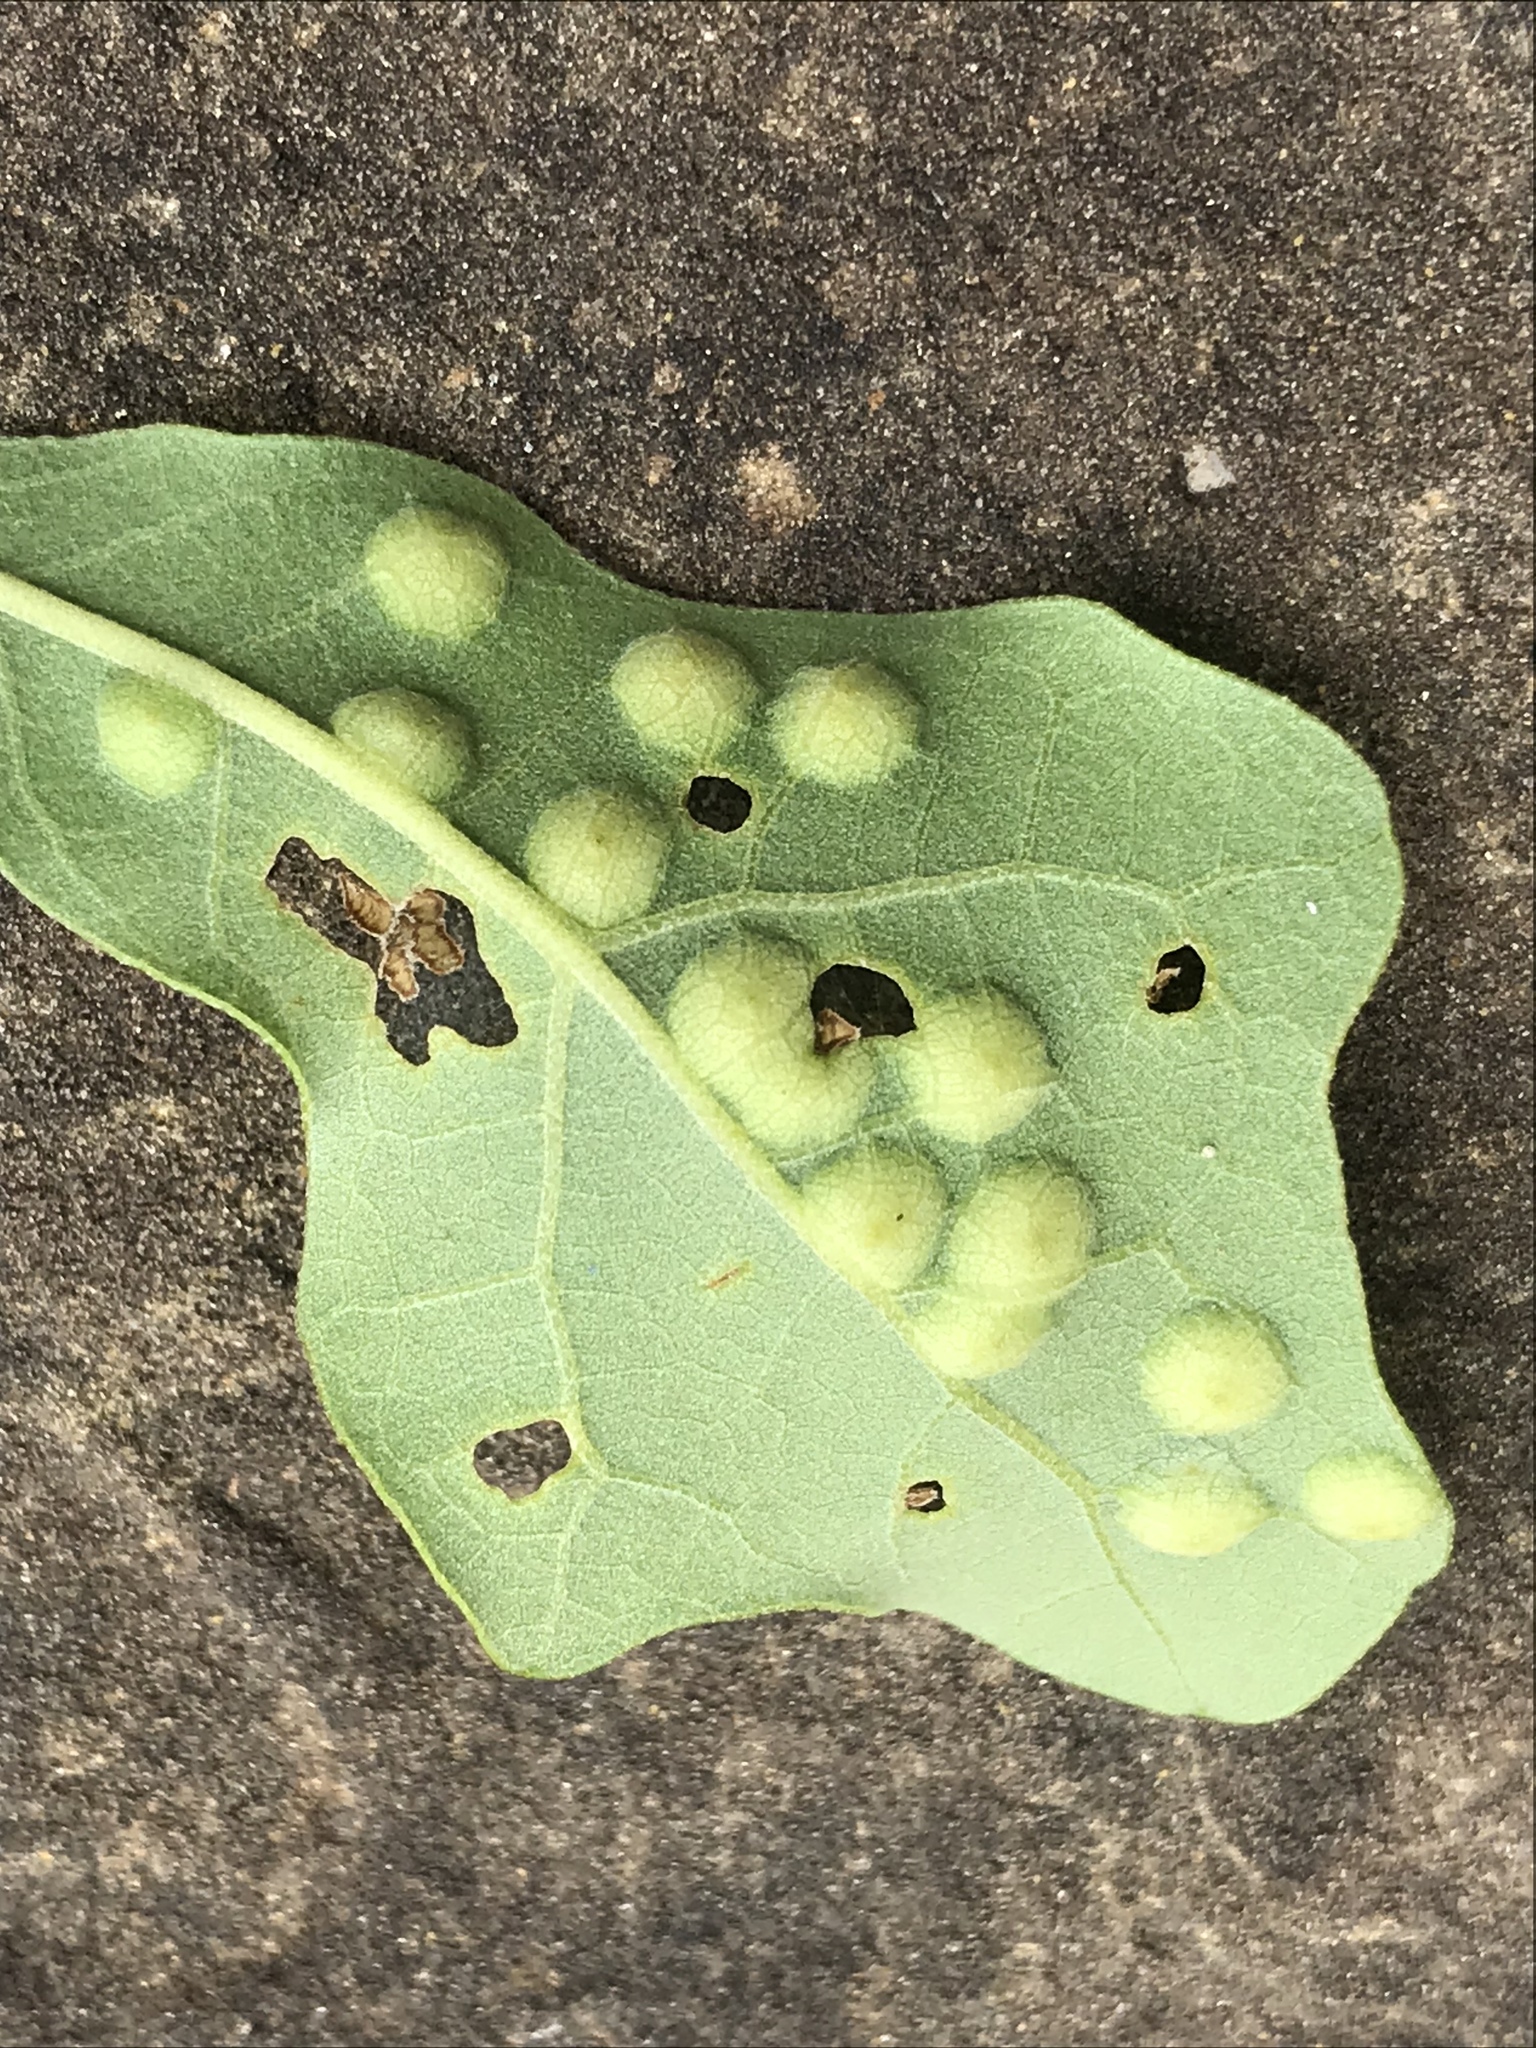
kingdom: Animalia
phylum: Arthropoda
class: Insecta
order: Hymenoptera
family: Cynipidae
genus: Callirhytis
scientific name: Callirhytis
